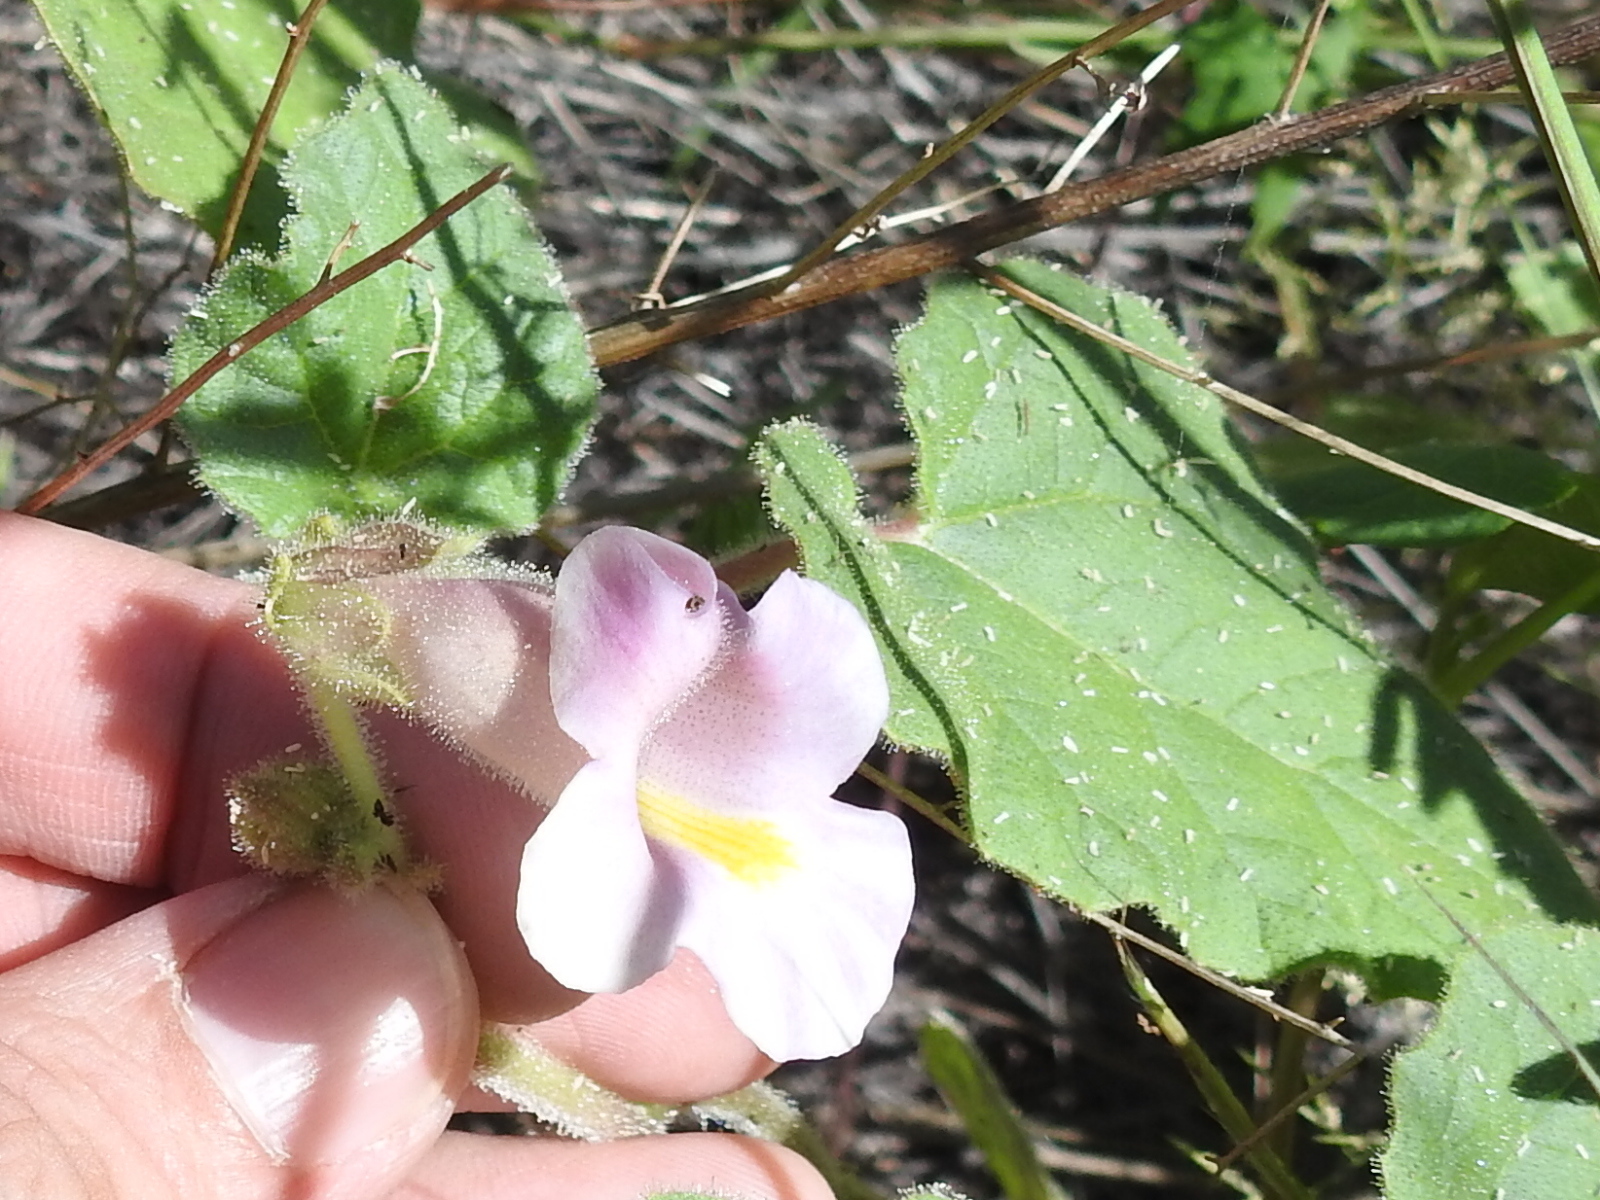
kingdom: Plantae
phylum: Tracheophyta
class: Magnoliopsida
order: Lamiales
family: Martyniaceae
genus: Proboscidea
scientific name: Proboscidea parviflora
